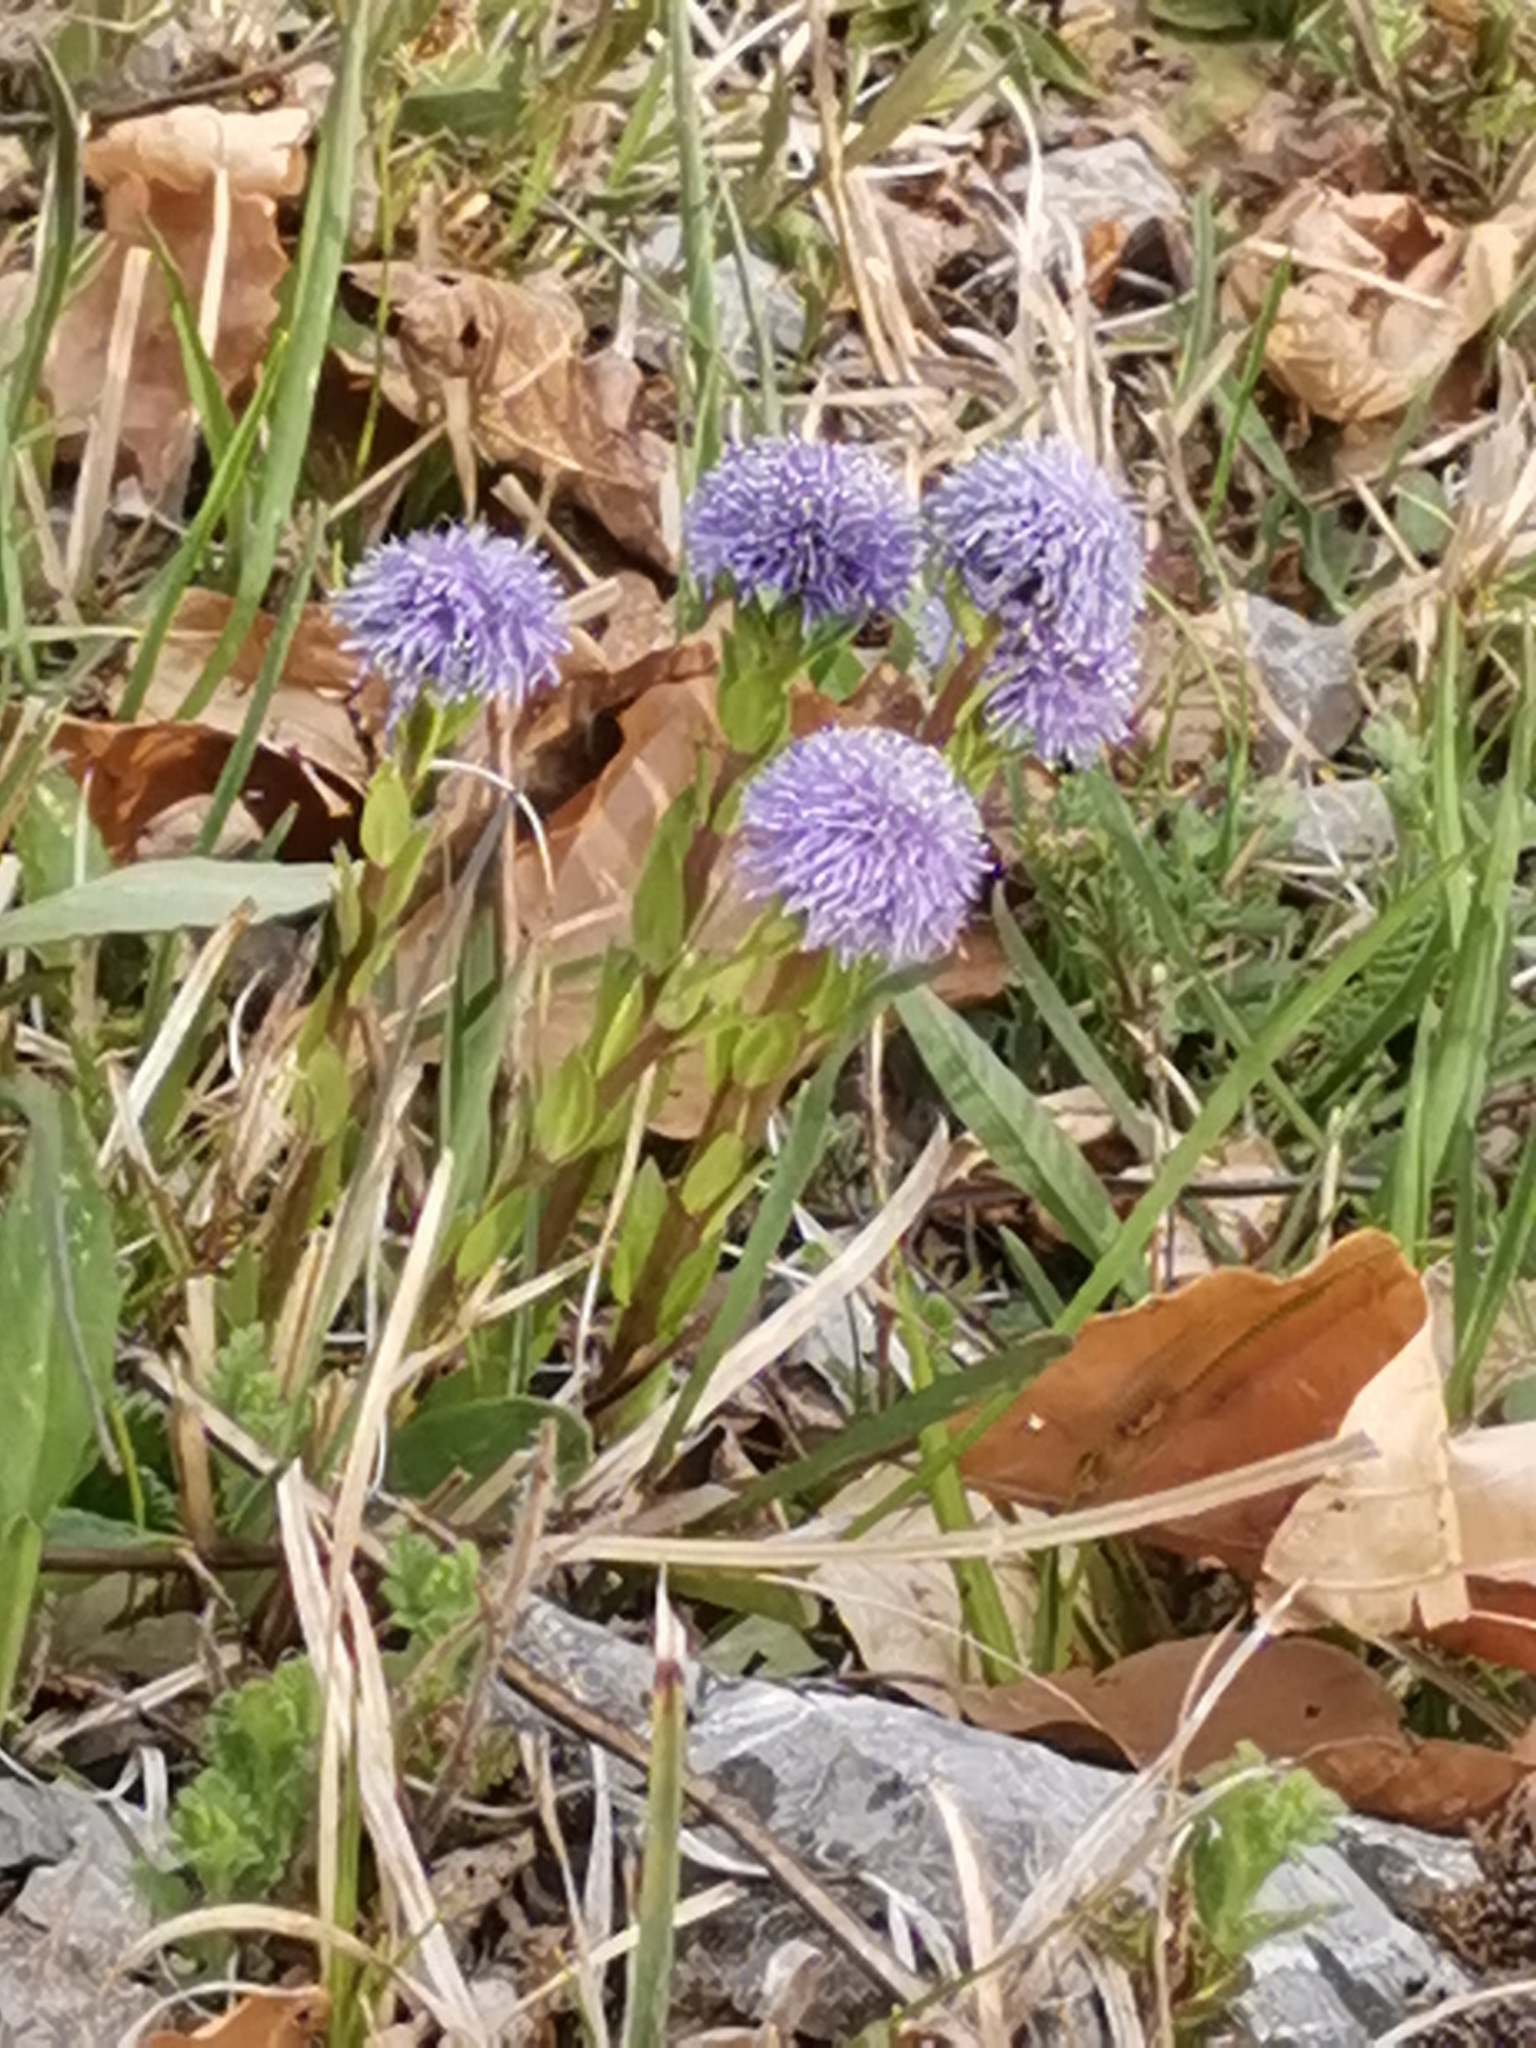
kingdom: Plantae
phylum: Tracheophyta
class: Magnoliopsida
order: Lamiales
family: Plantaginaceae
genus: Globularia
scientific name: Globularia bisnagarica
